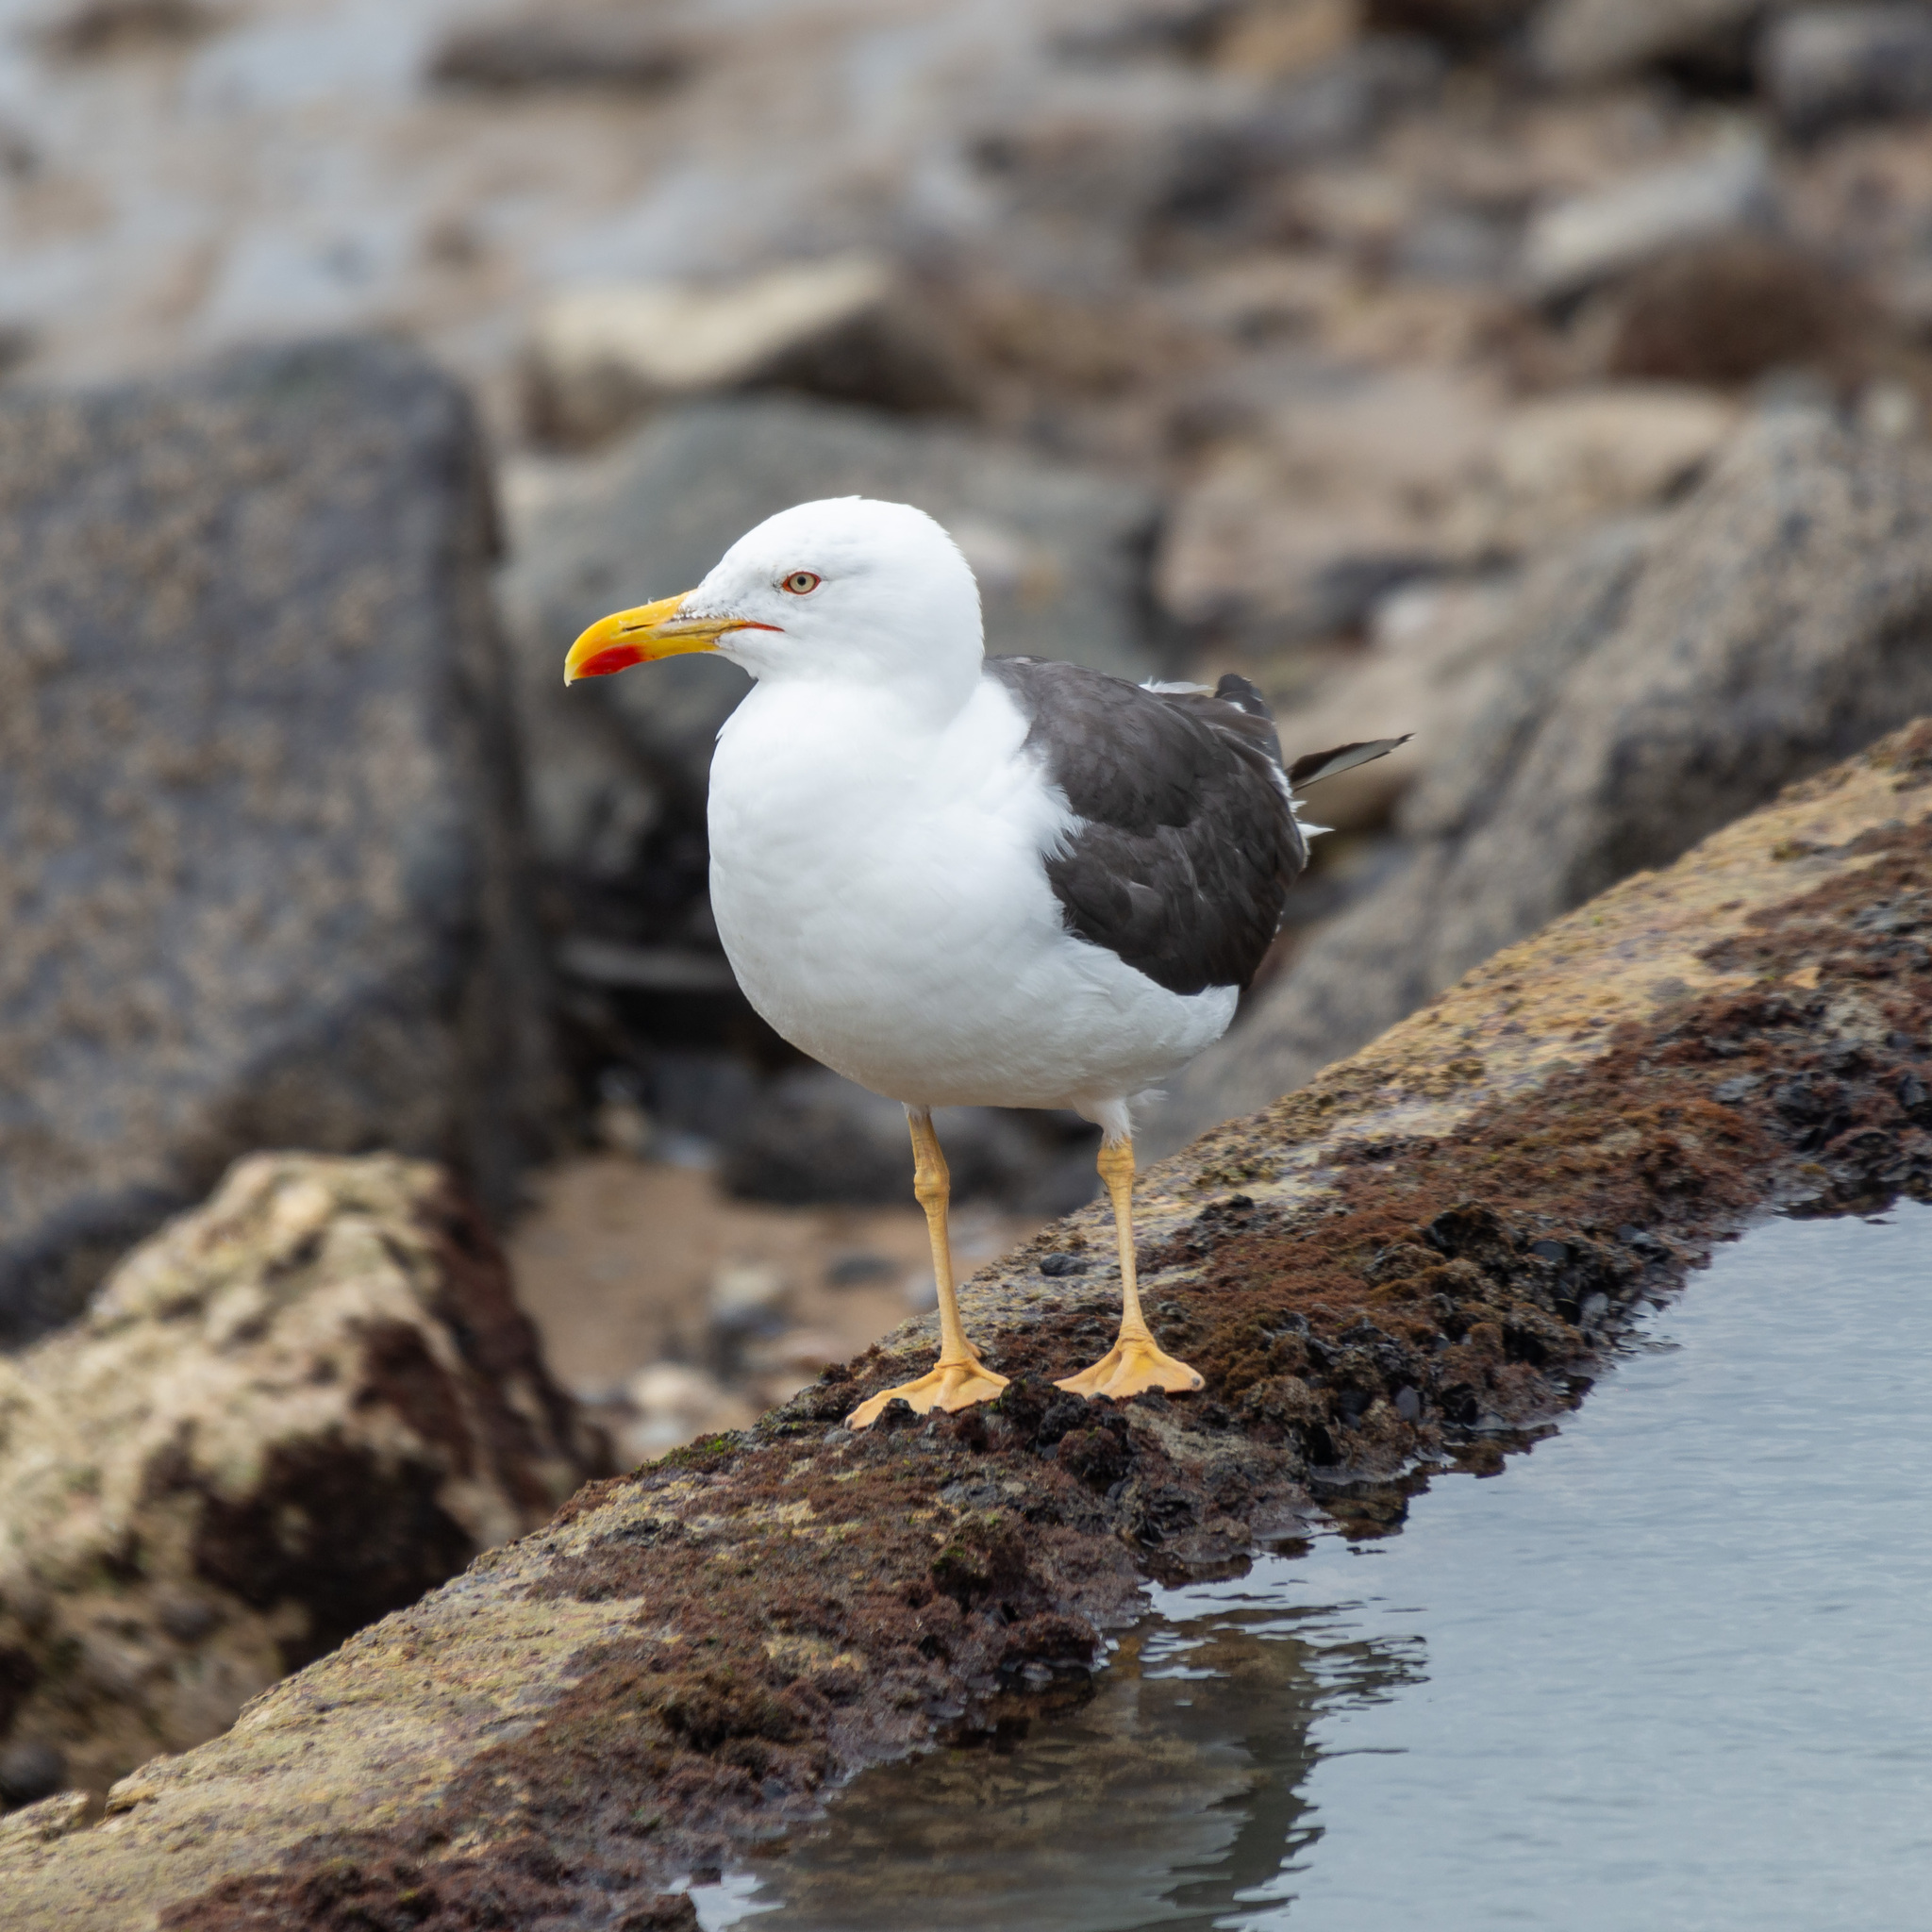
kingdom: Animalia
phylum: Chordata
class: Aves
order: Charadriiformes
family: Laridae
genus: Larus
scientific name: Larus fuscus
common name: Lesser black-backed gull
